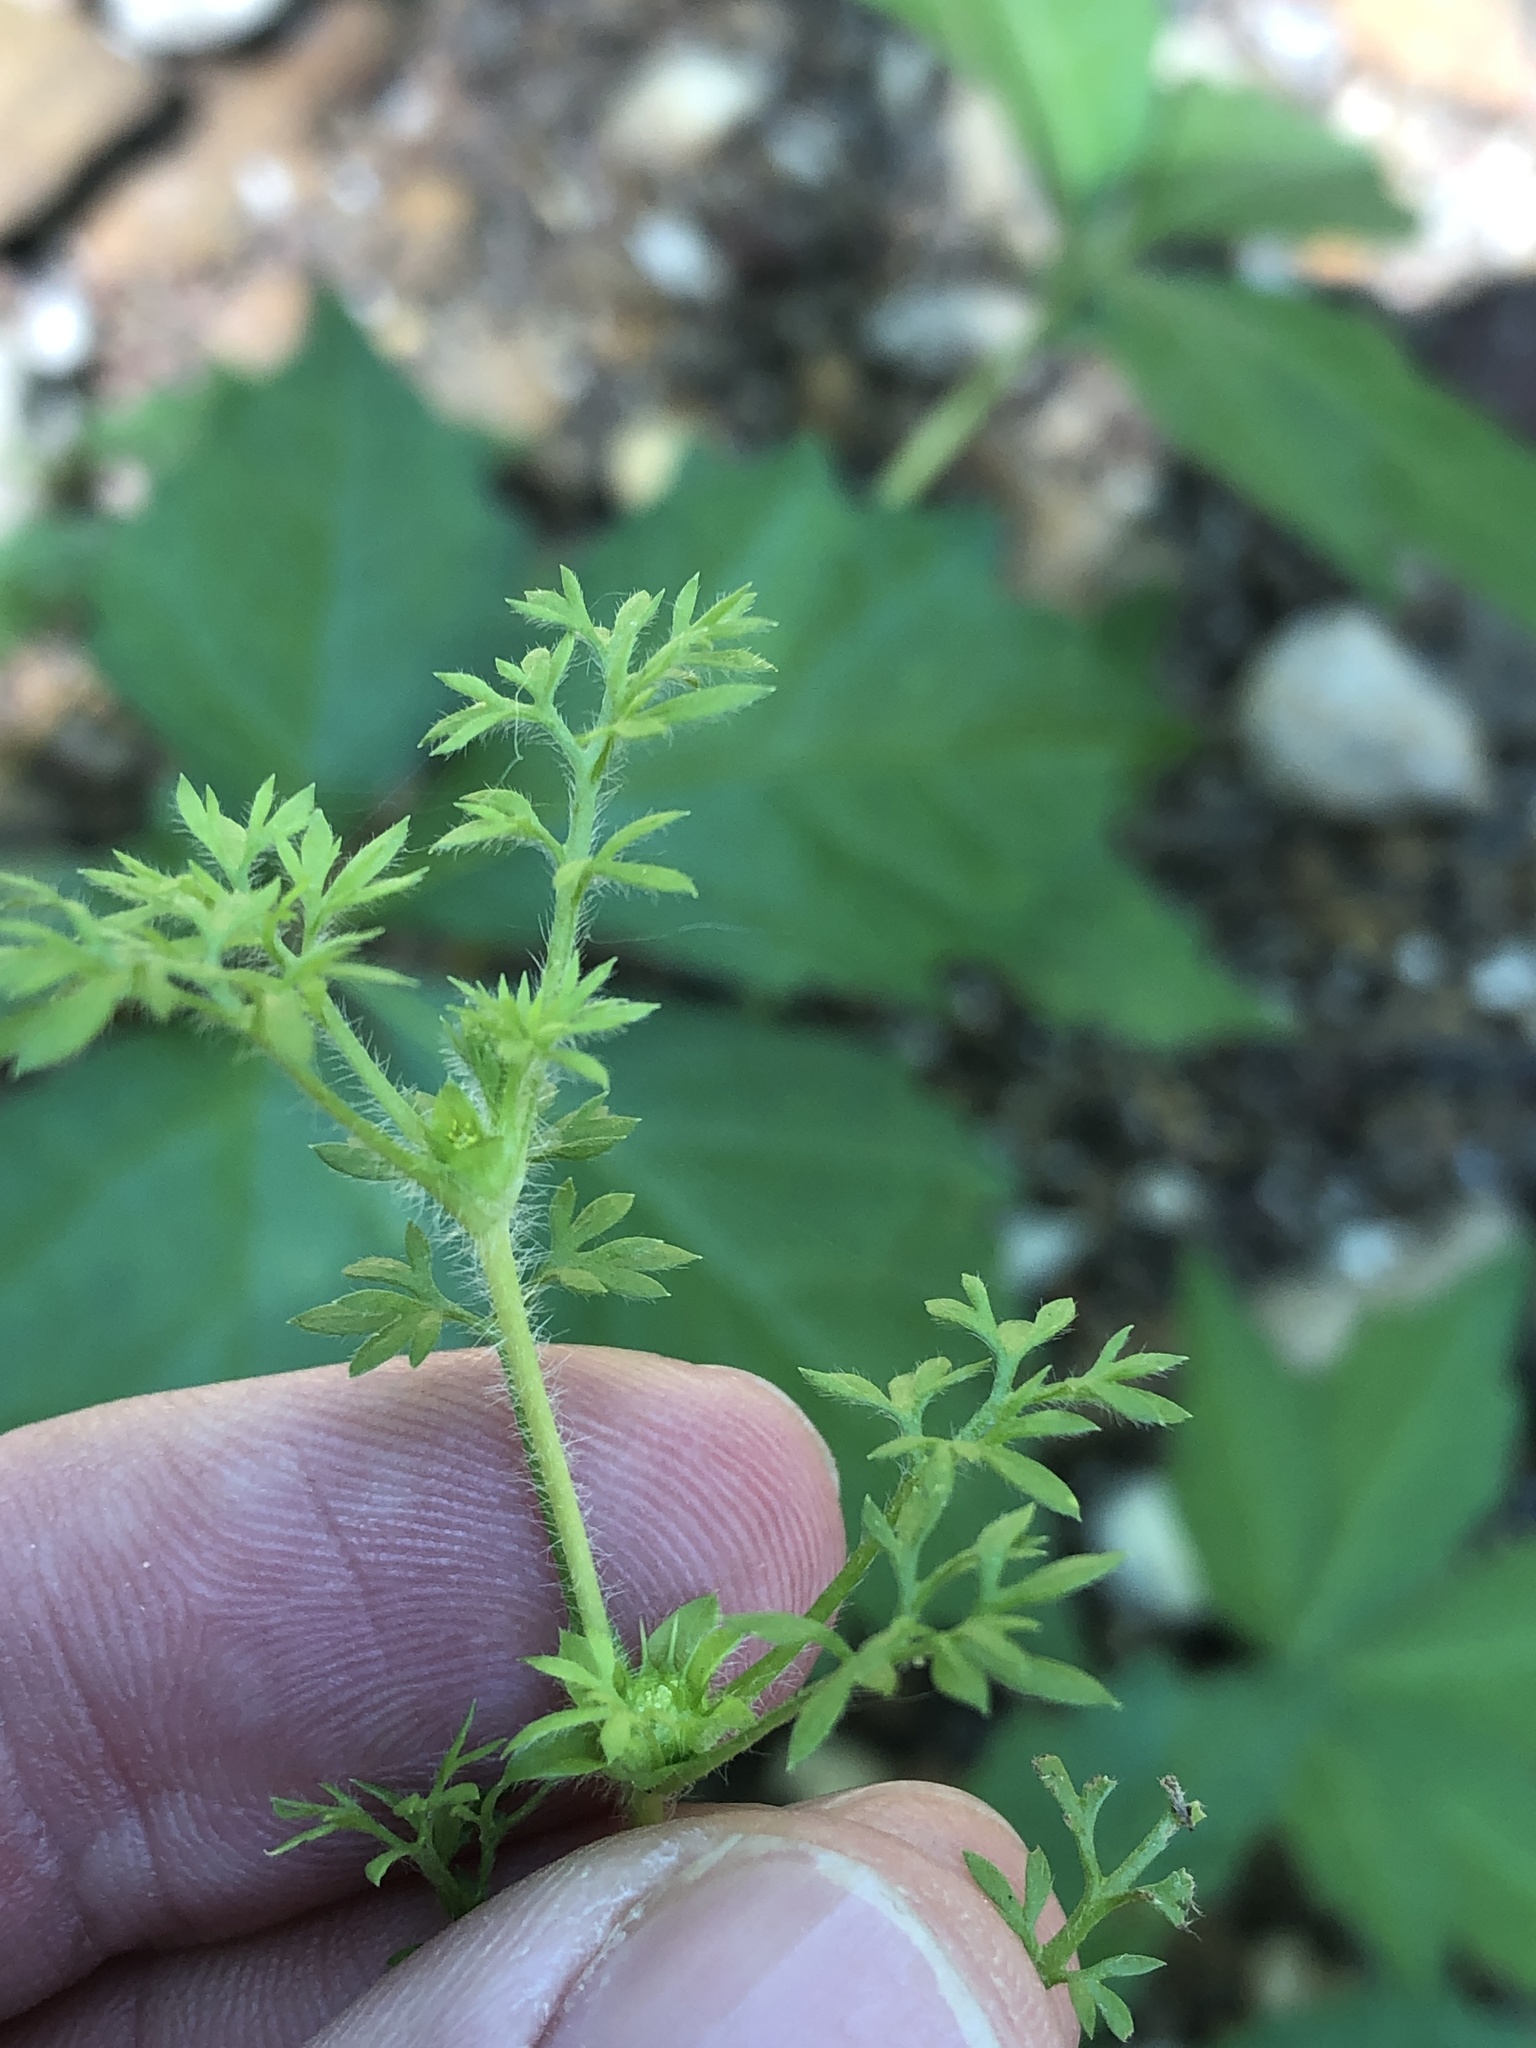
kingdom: Plantae
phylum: Tracheophyta
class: Magnoliopsida
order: Asterales
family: Asteraceae
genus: Soliva
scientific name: Soliva sessilis
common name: Field burrweed
